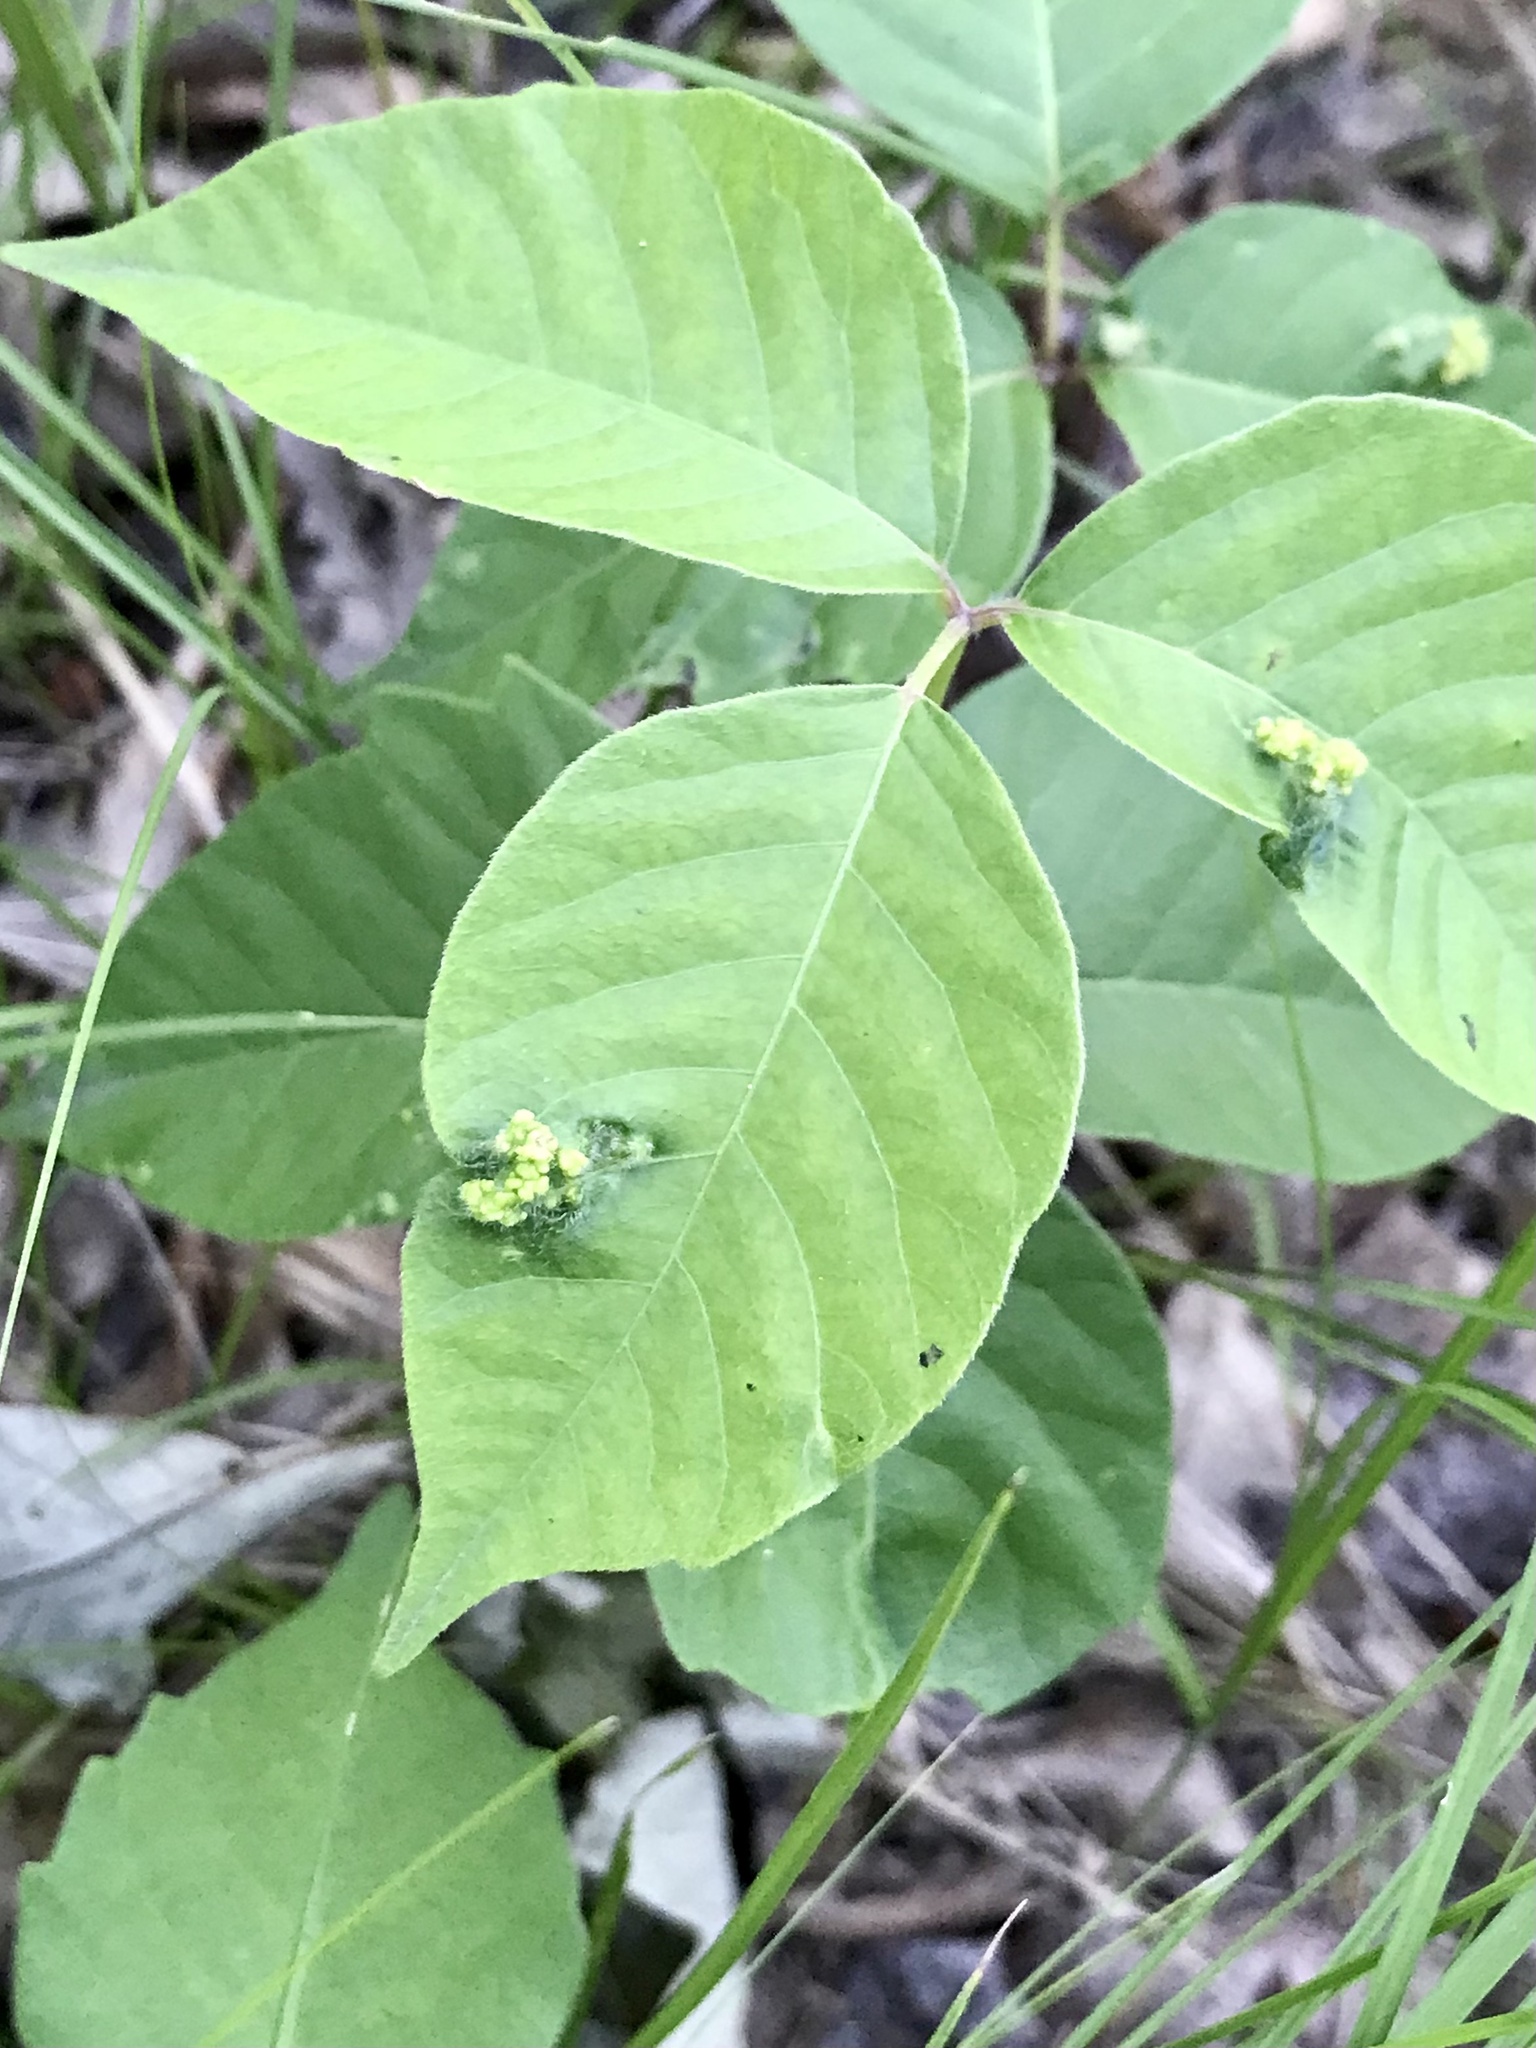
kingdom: Animalia
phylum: Arthropoda
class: Arachnida
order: Trombidiformes
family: Eriophyidae
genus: Aculops
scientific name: Aculops
